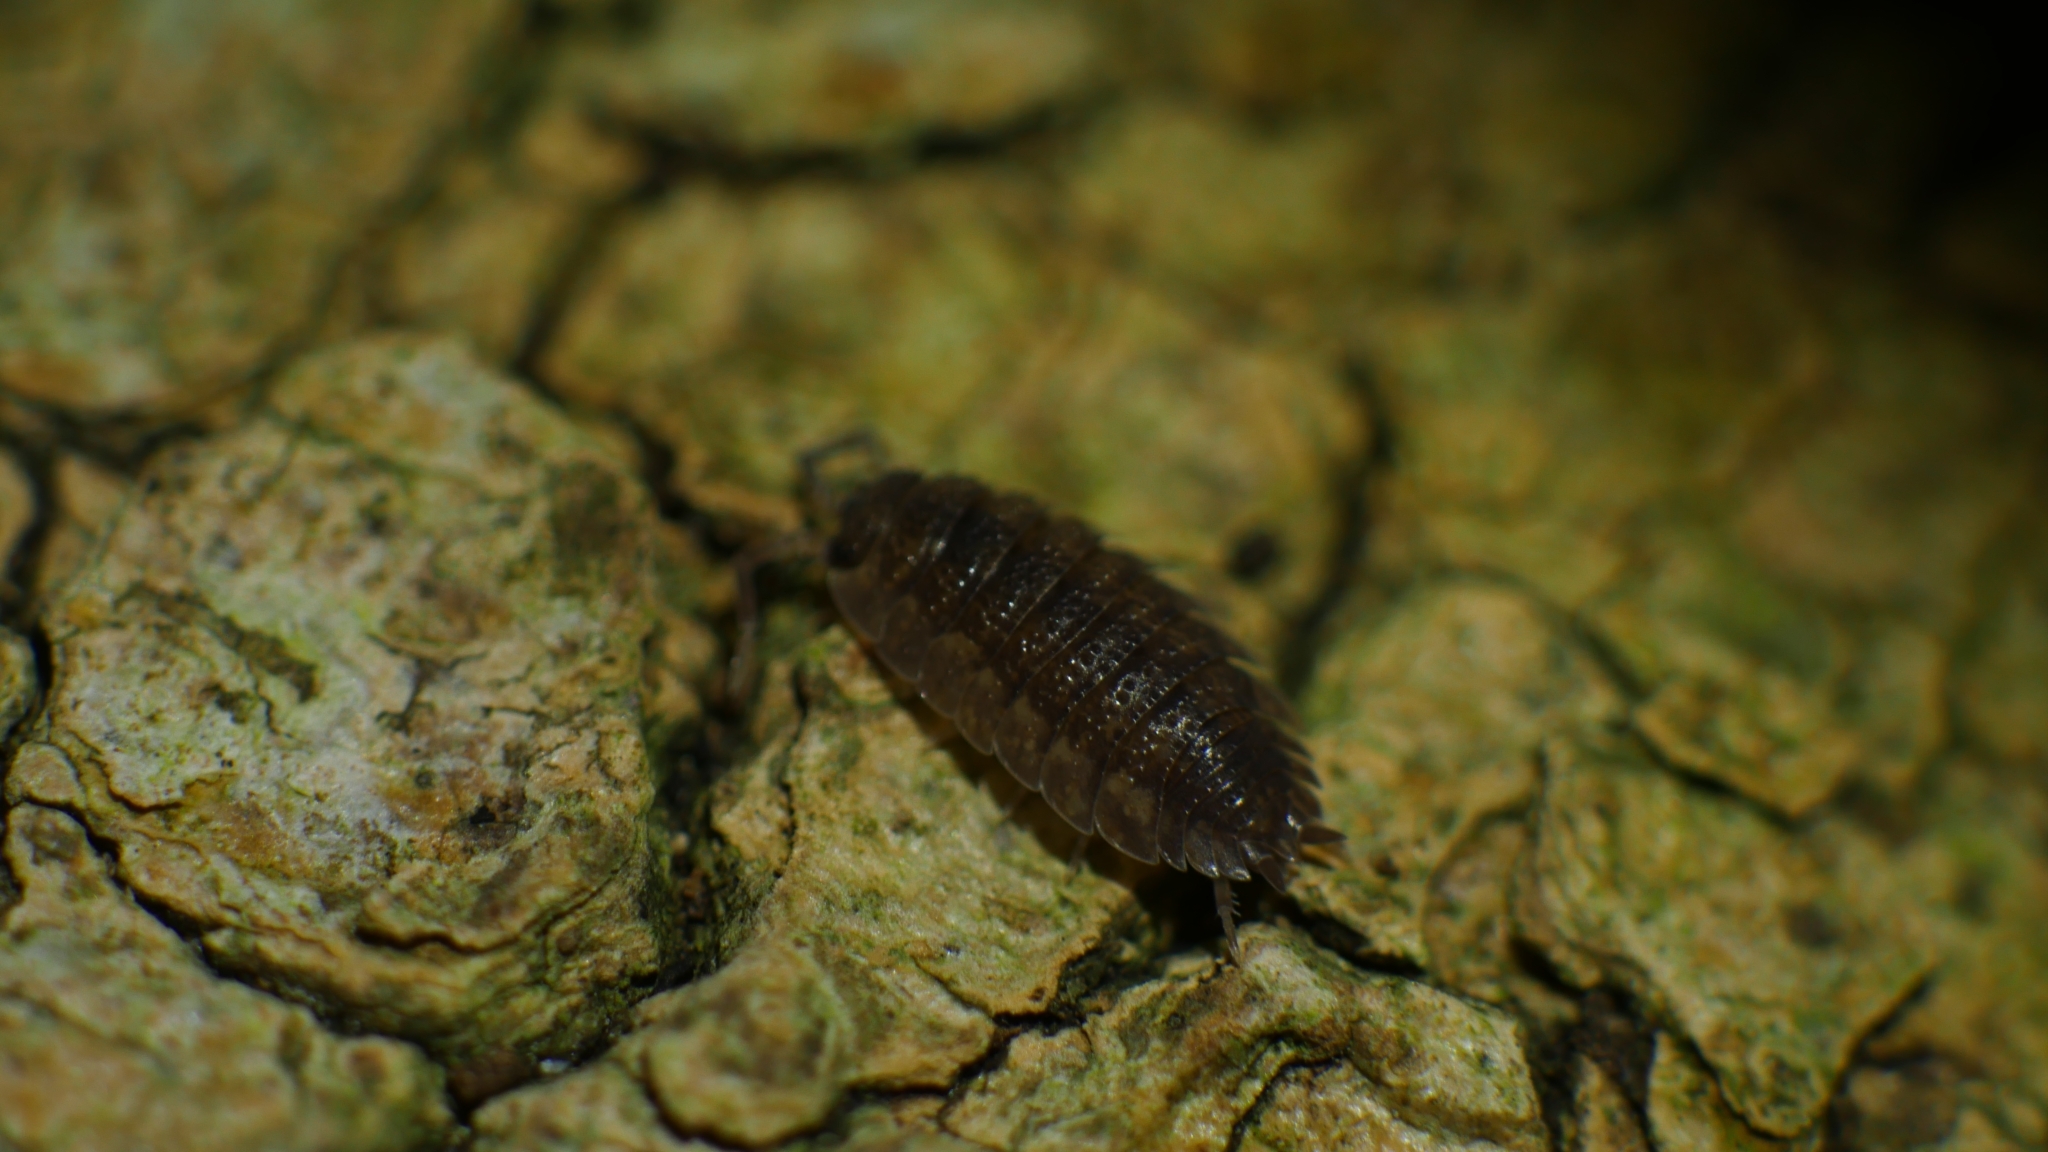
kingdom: Animalia
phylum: Arthropoda
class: Malacostraca
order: Isopoda
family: Porcellionidae
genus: Porcellio
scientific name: Porcellio scaber
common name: Common rough woodlouse
